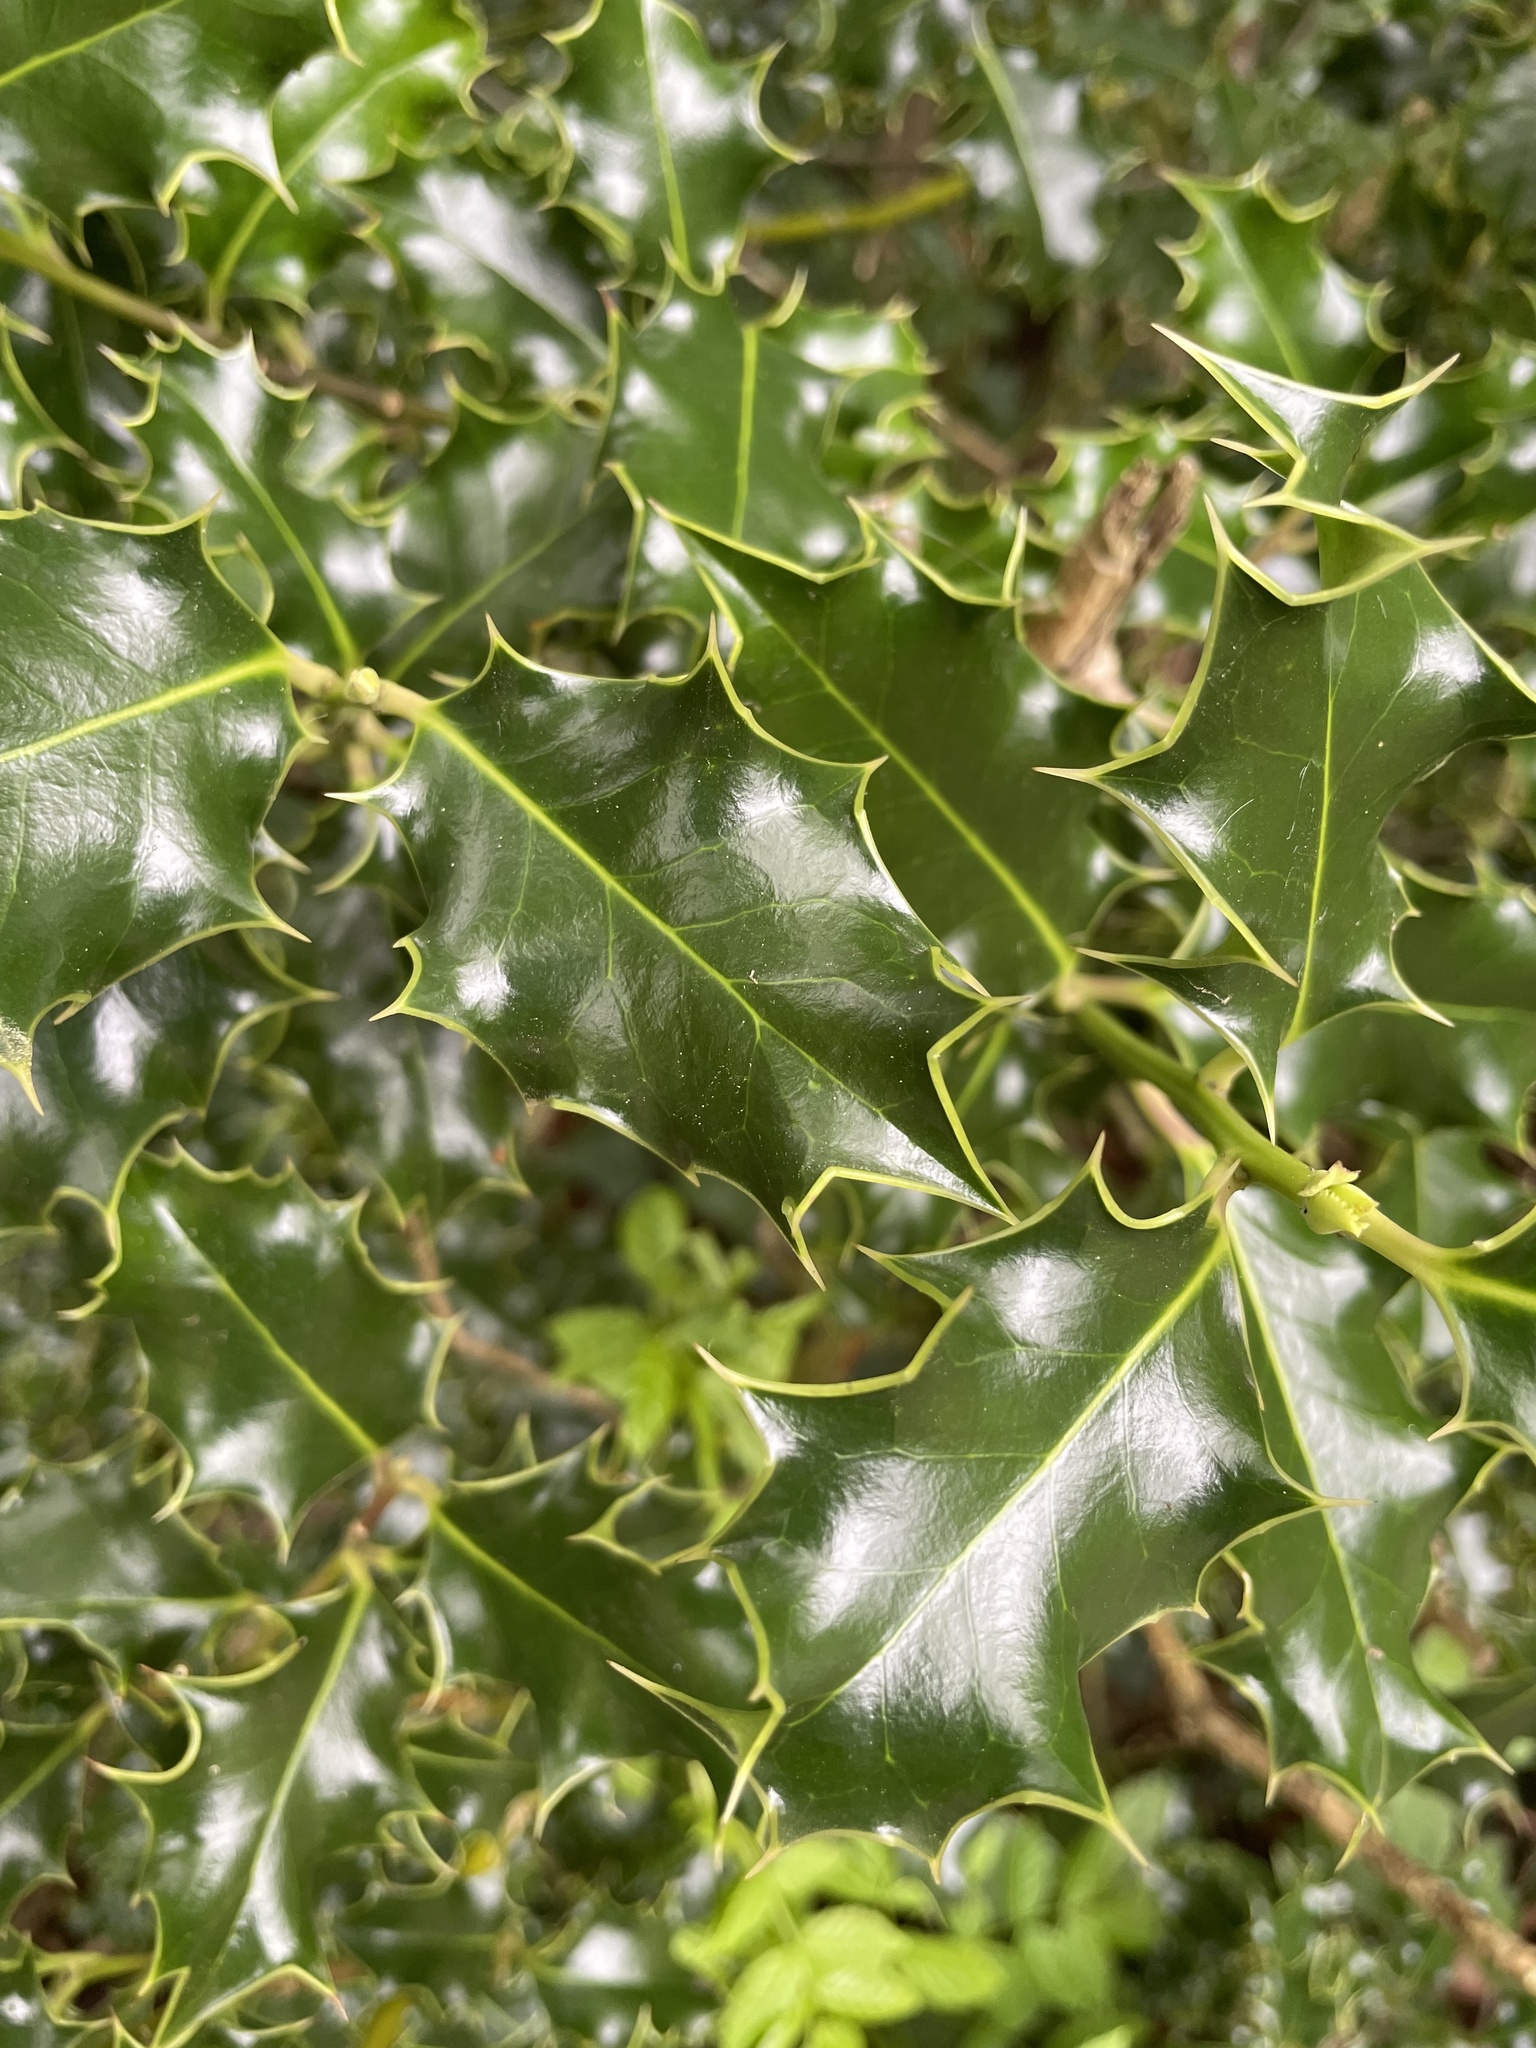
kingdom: Plantae
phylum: Tracheophyta
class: Magnoliopsida
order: Aquifoliales
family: Aquifoliaceae
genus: Ilex
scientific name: Ilex aquifolium
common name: English holly
